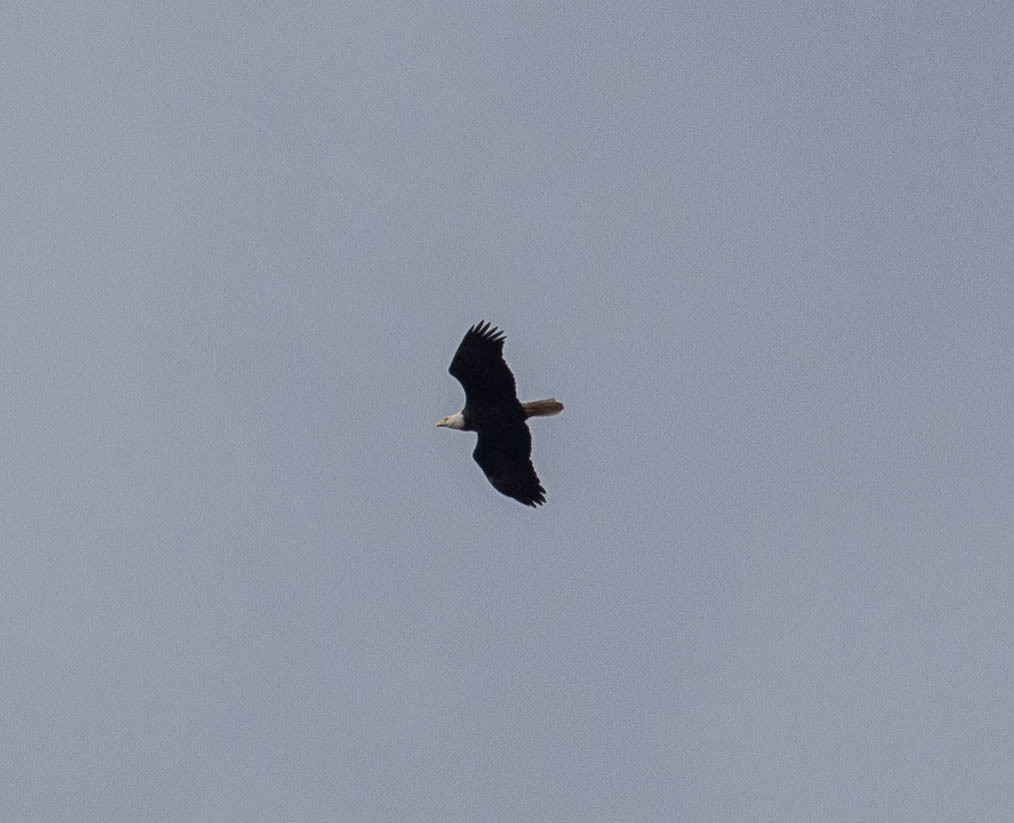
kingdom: Animalia
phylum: Chordata
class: Aves
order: Accipitriformes
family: Accipitridae
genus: Haliaeetus
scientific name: Haliaeetus leucocephalus
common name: Bald eagle
